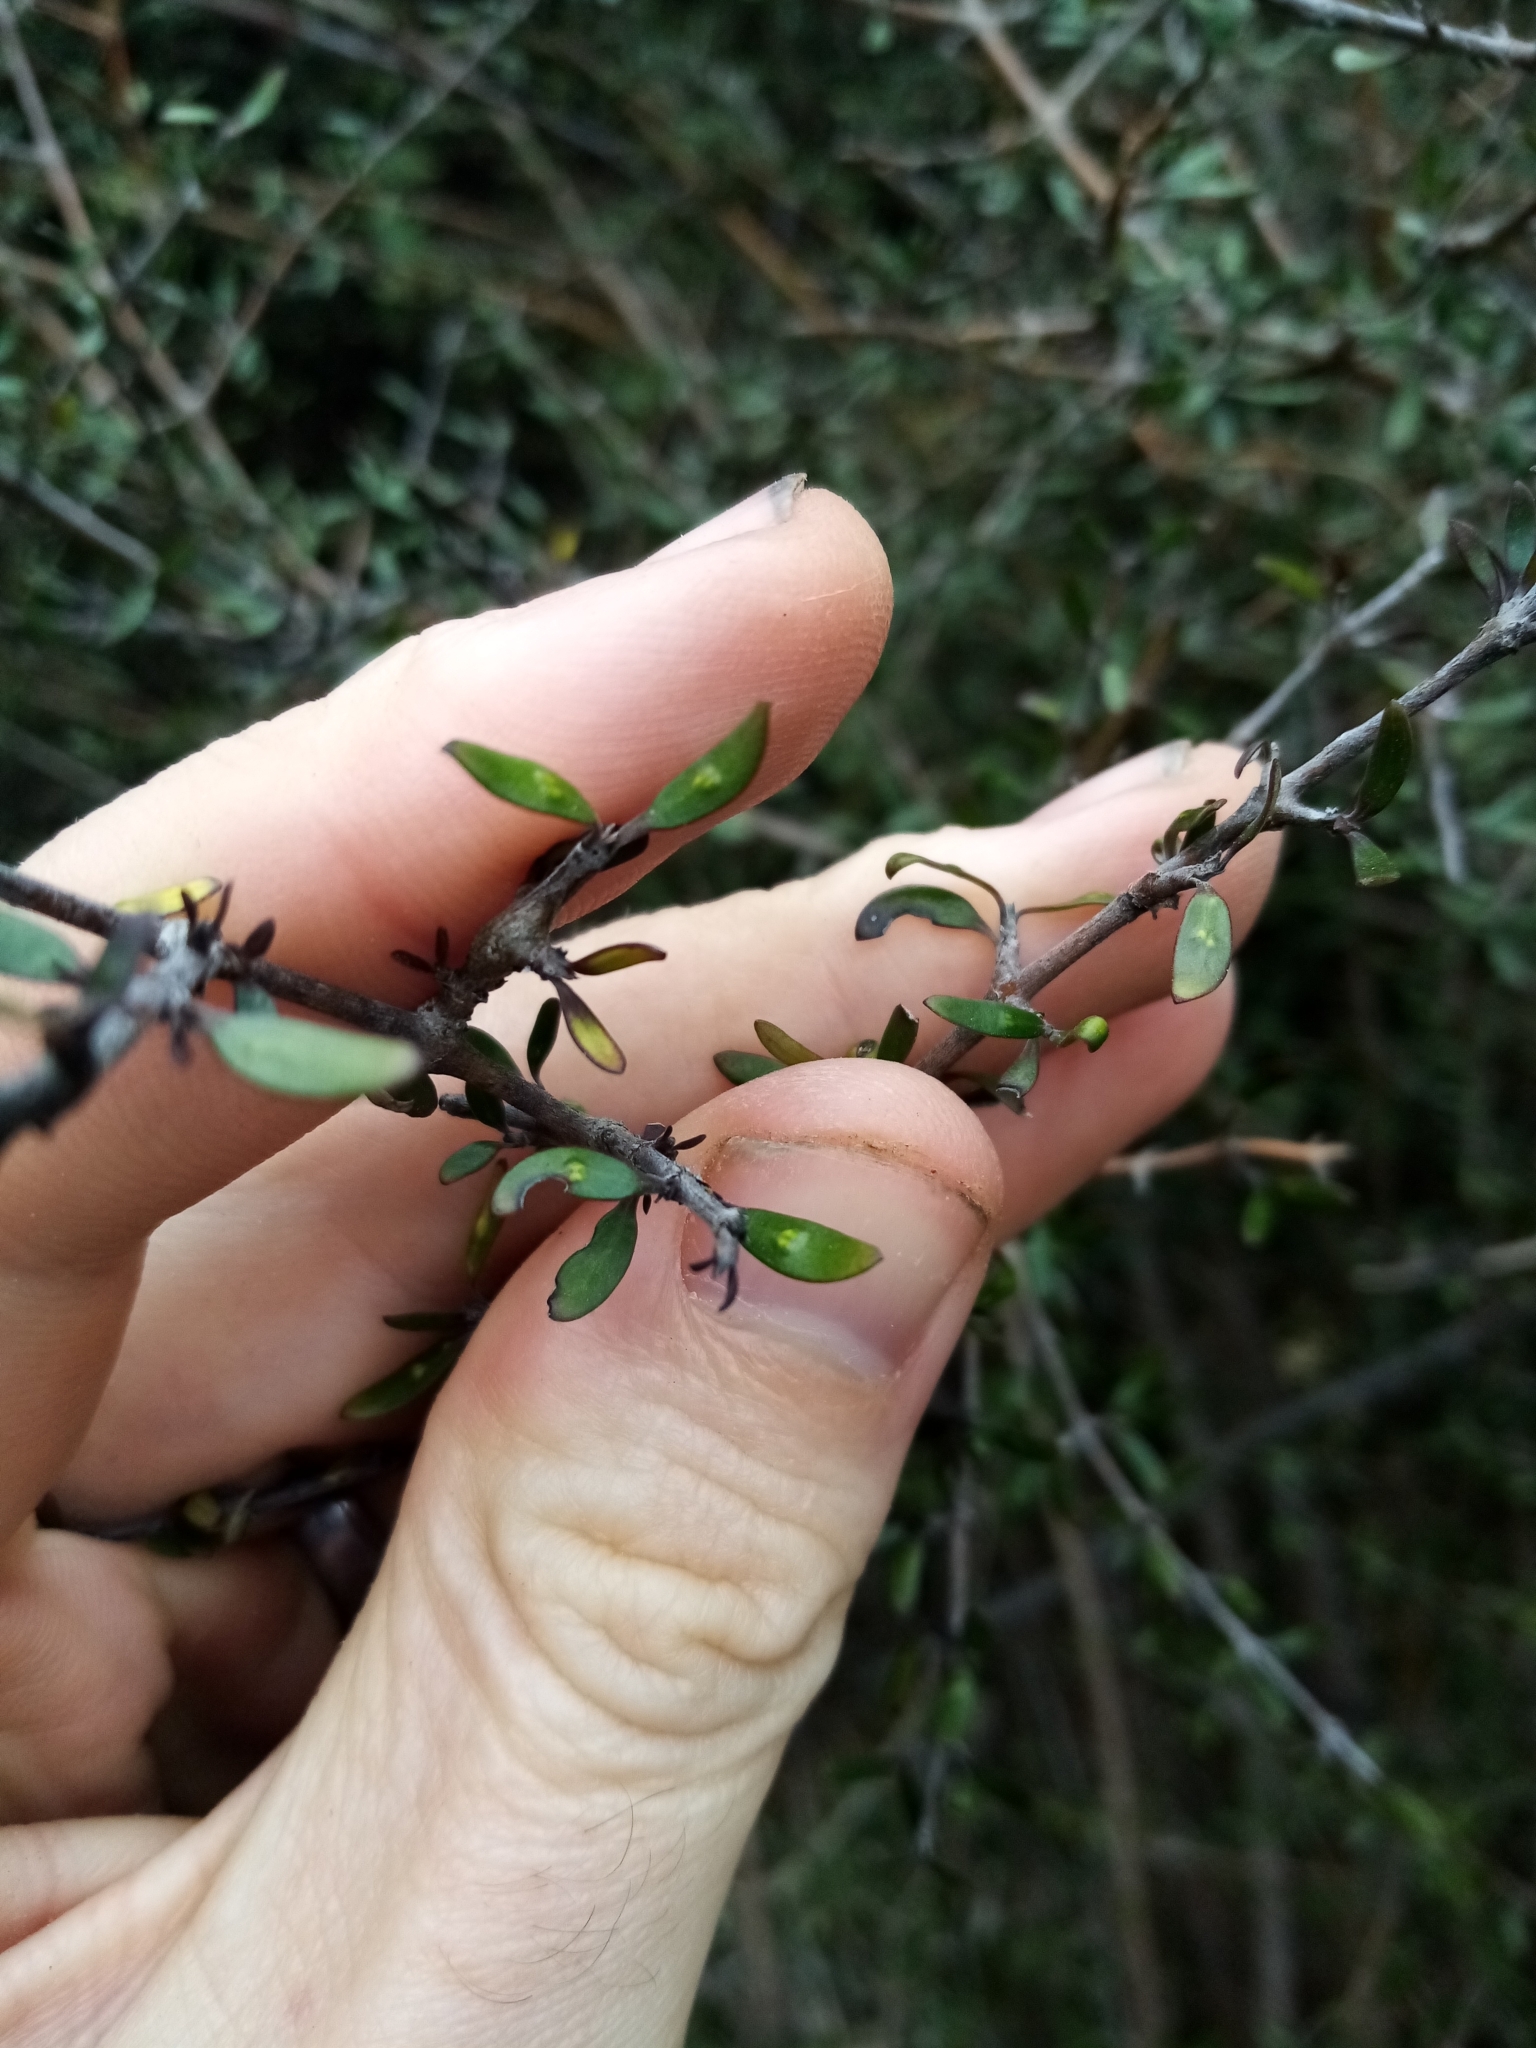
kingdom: Plantae
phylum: Tracheophyta
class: Magnoliopsida
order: Gentianales
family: Rubiaceae
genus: Coprosma
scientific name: Coprosma propinqua
